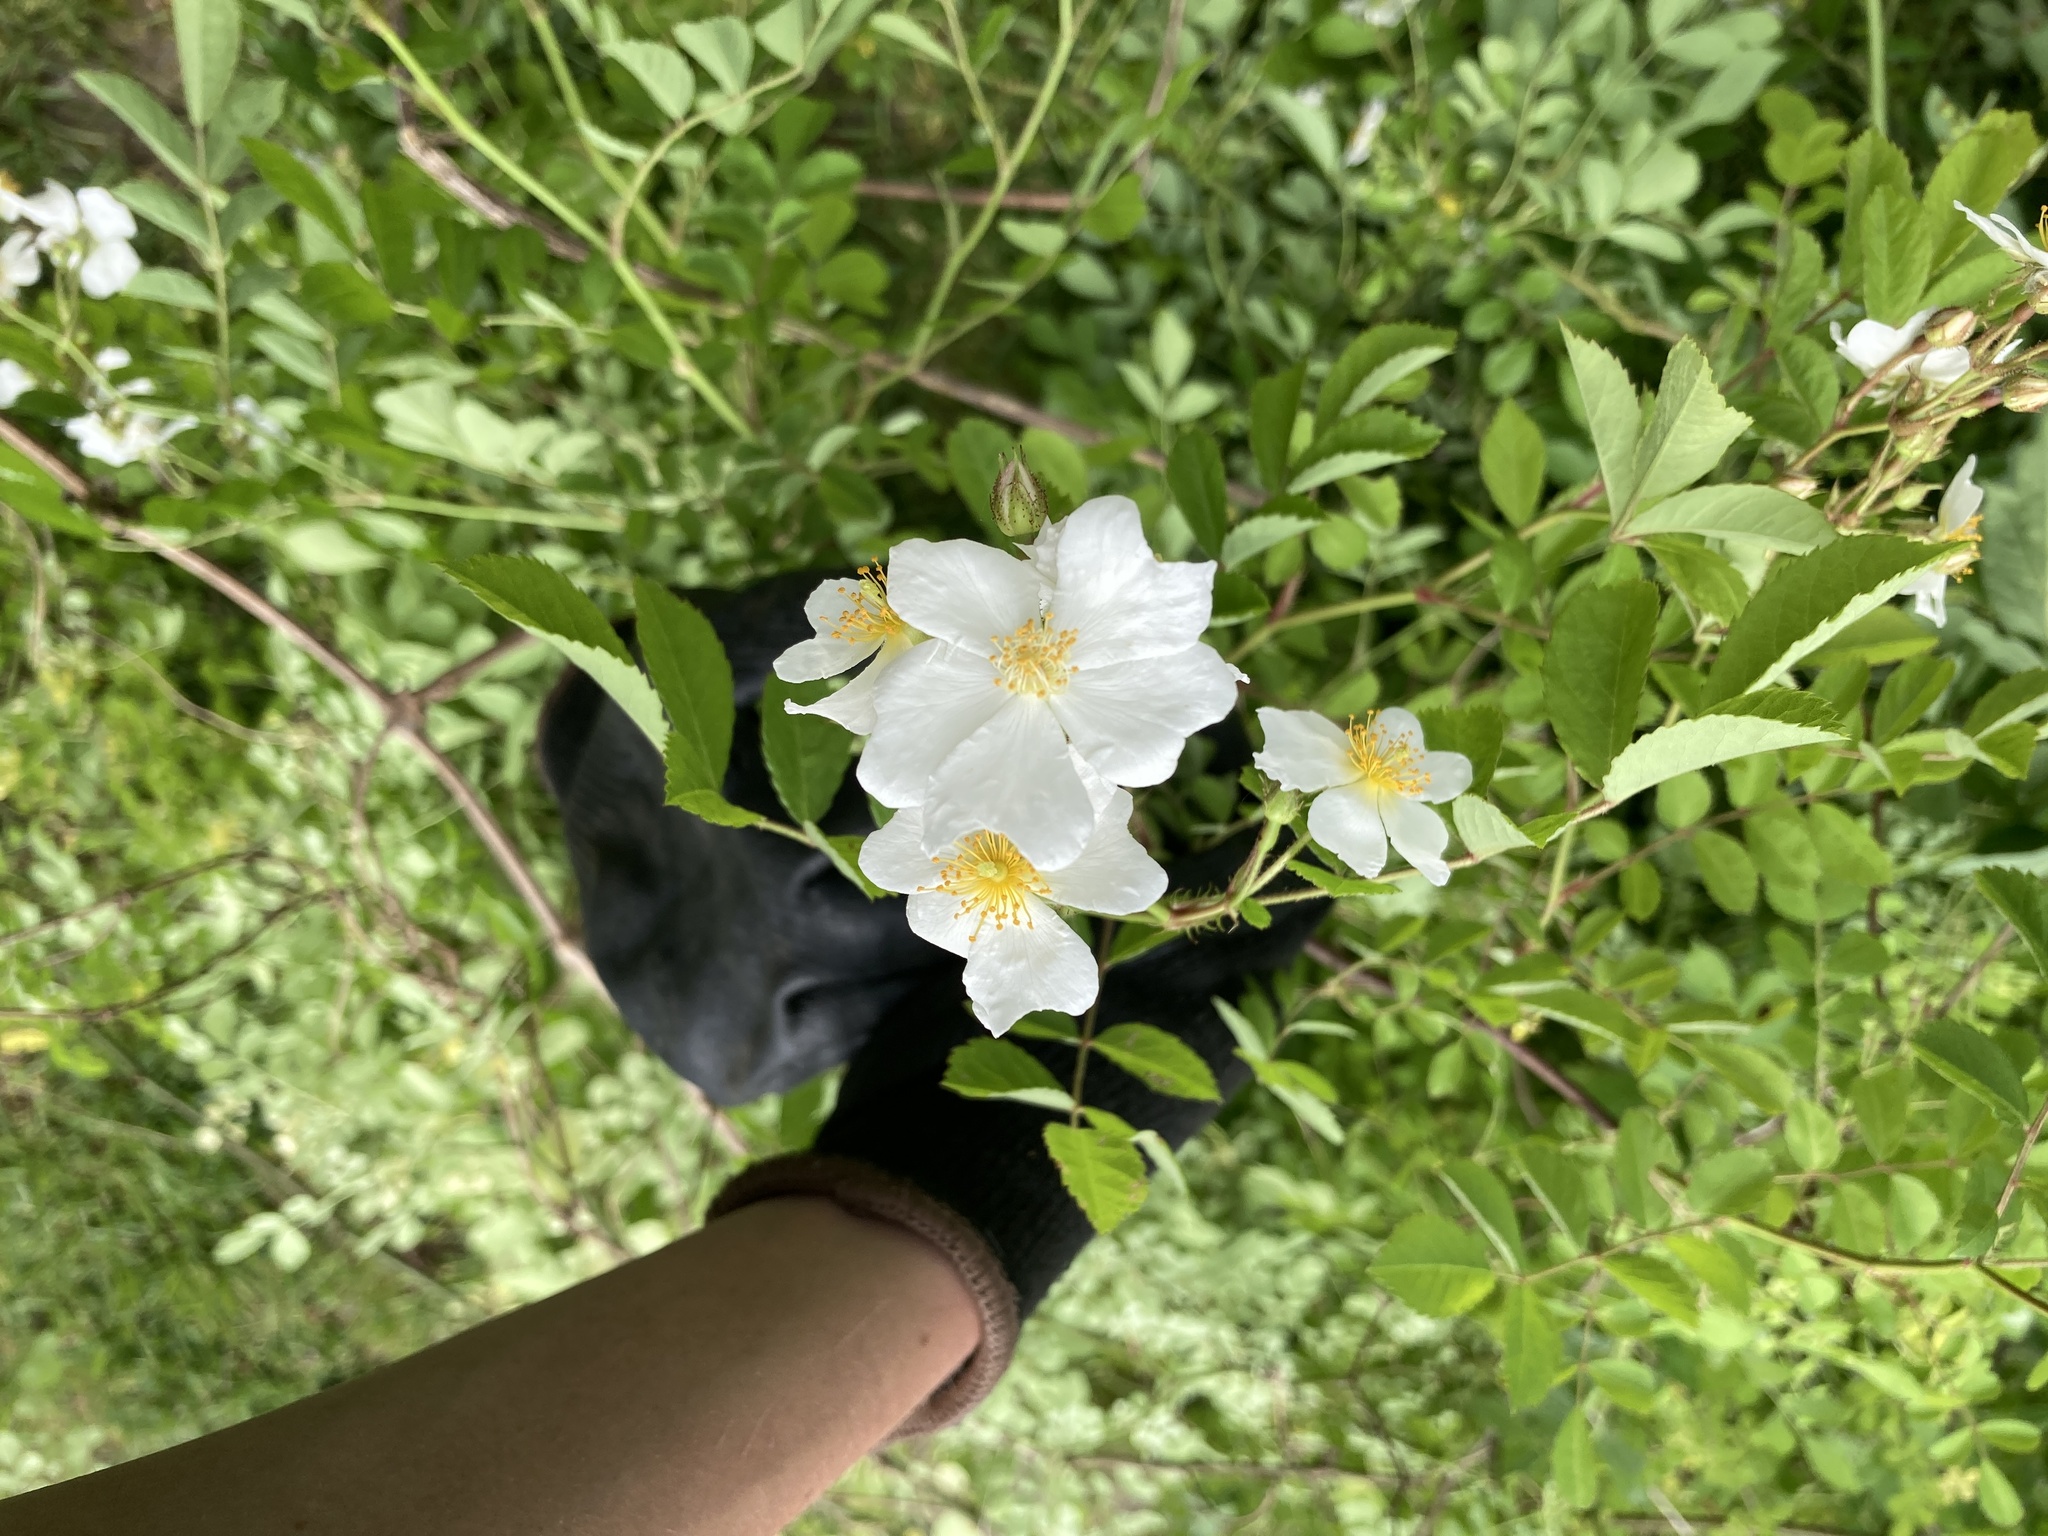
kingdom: Plantae
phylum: Tracheophyta
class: Magnoliopsida
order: Rosales
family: Rosaceae
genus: Rosa
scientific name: Rosa multiflora
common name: Multiflora rose
